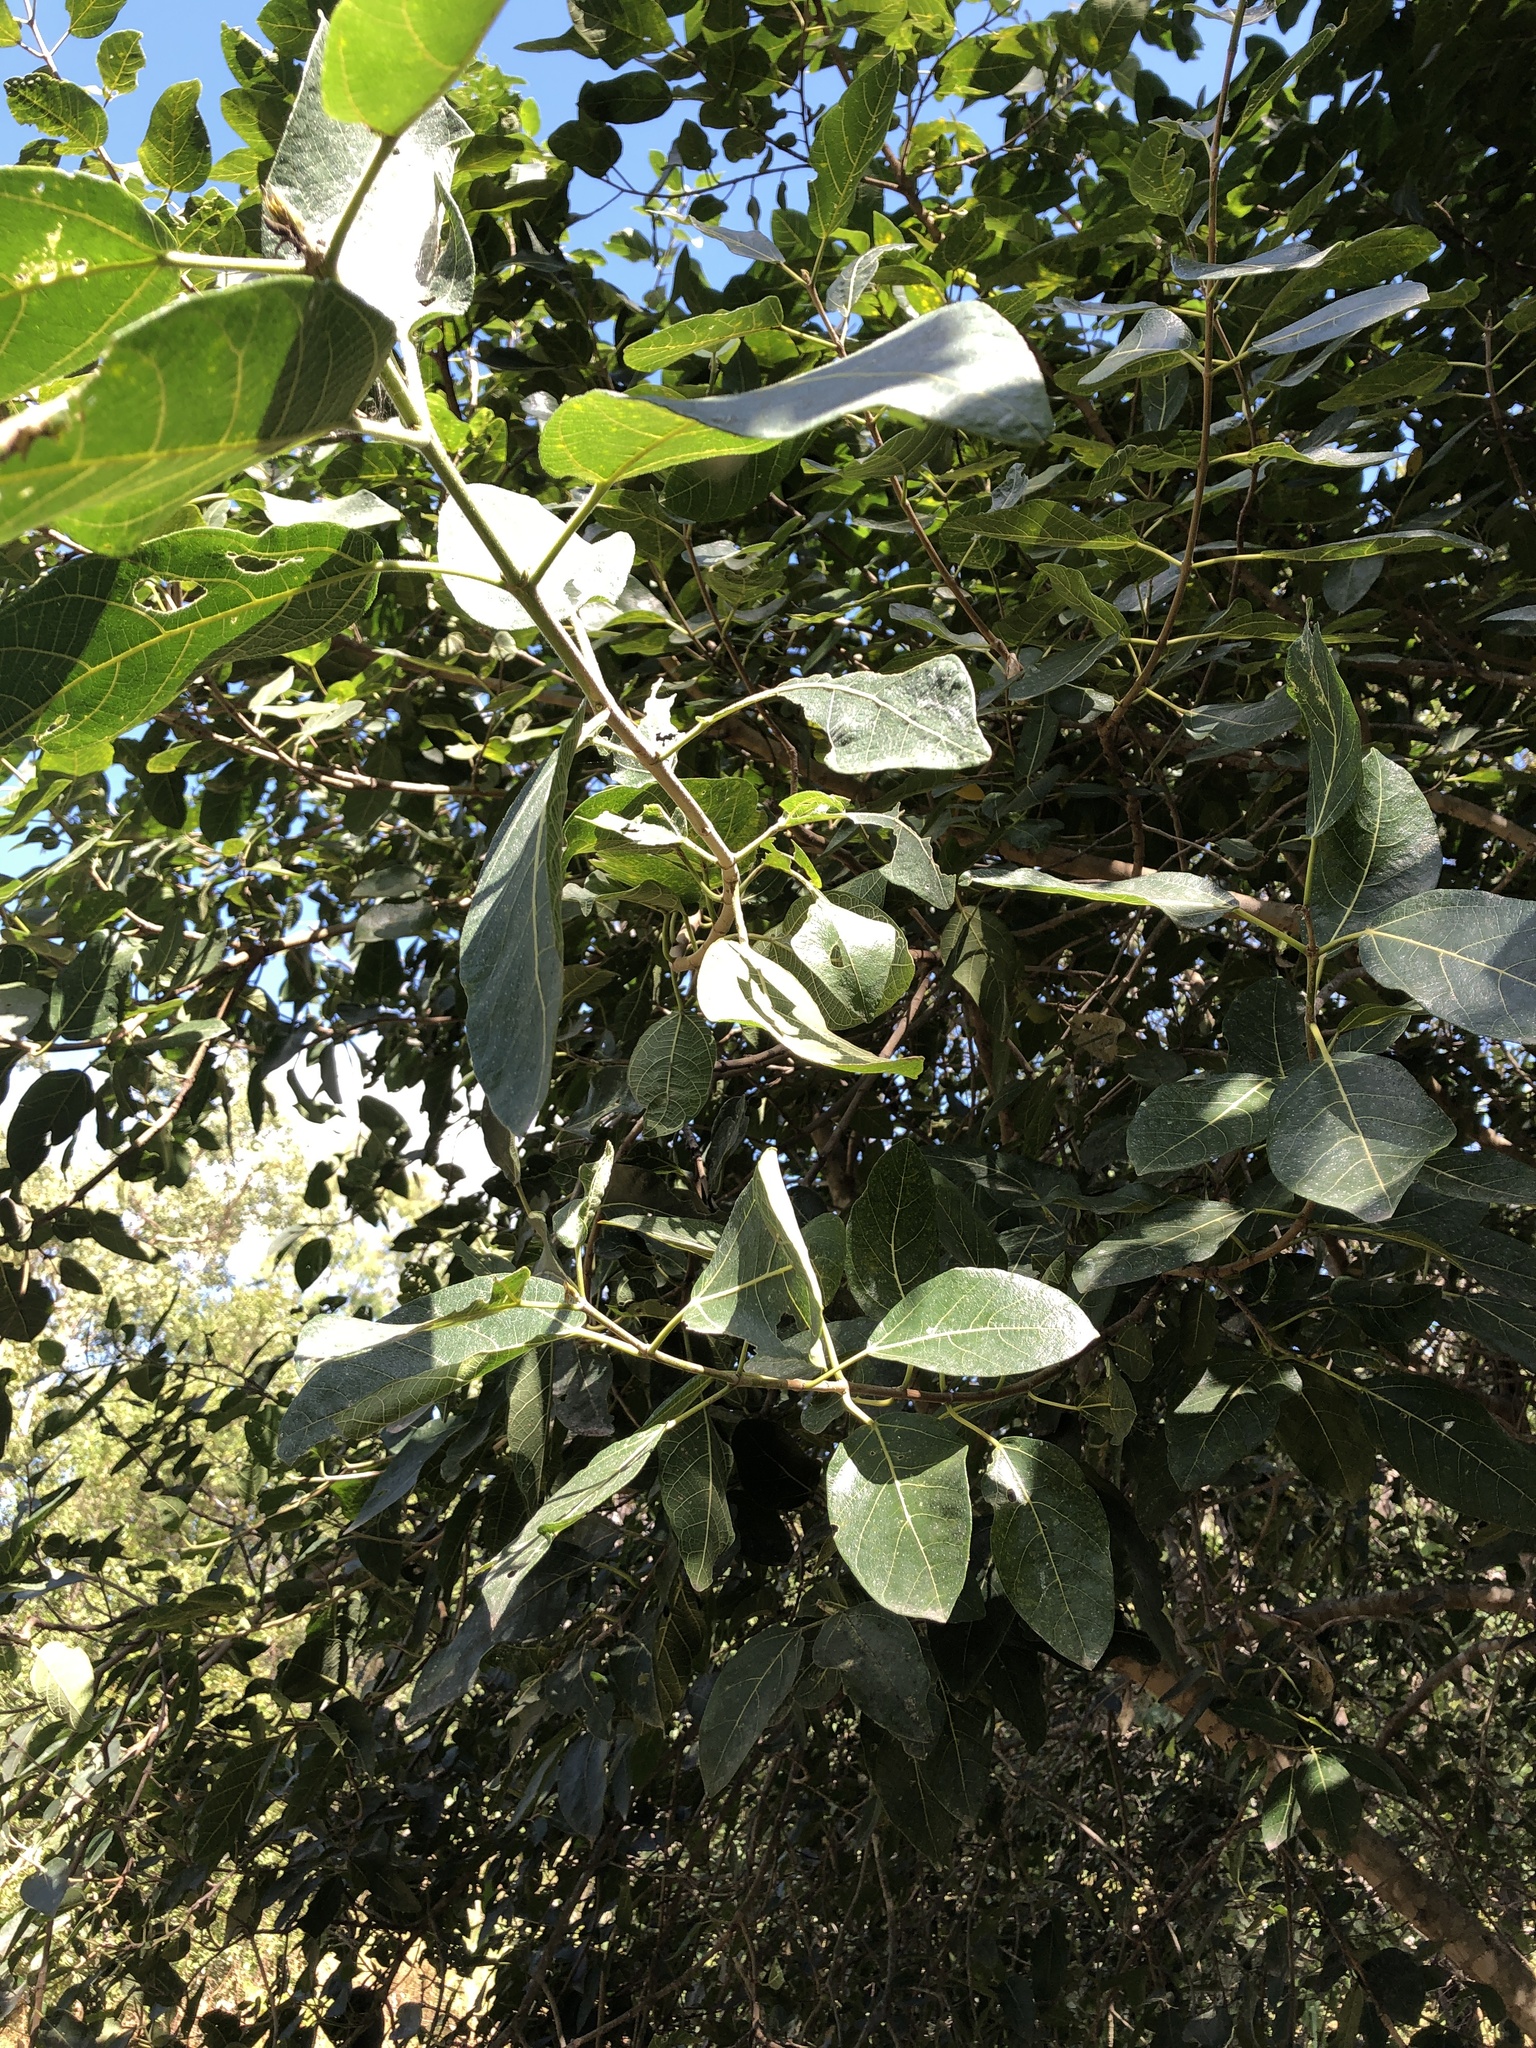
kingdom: Plantae
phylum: Tracheophyta
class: Magnoliopsida
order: Rosales
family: Moraceae
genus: Ficus
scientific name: Ficus opposita
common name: Figwood
